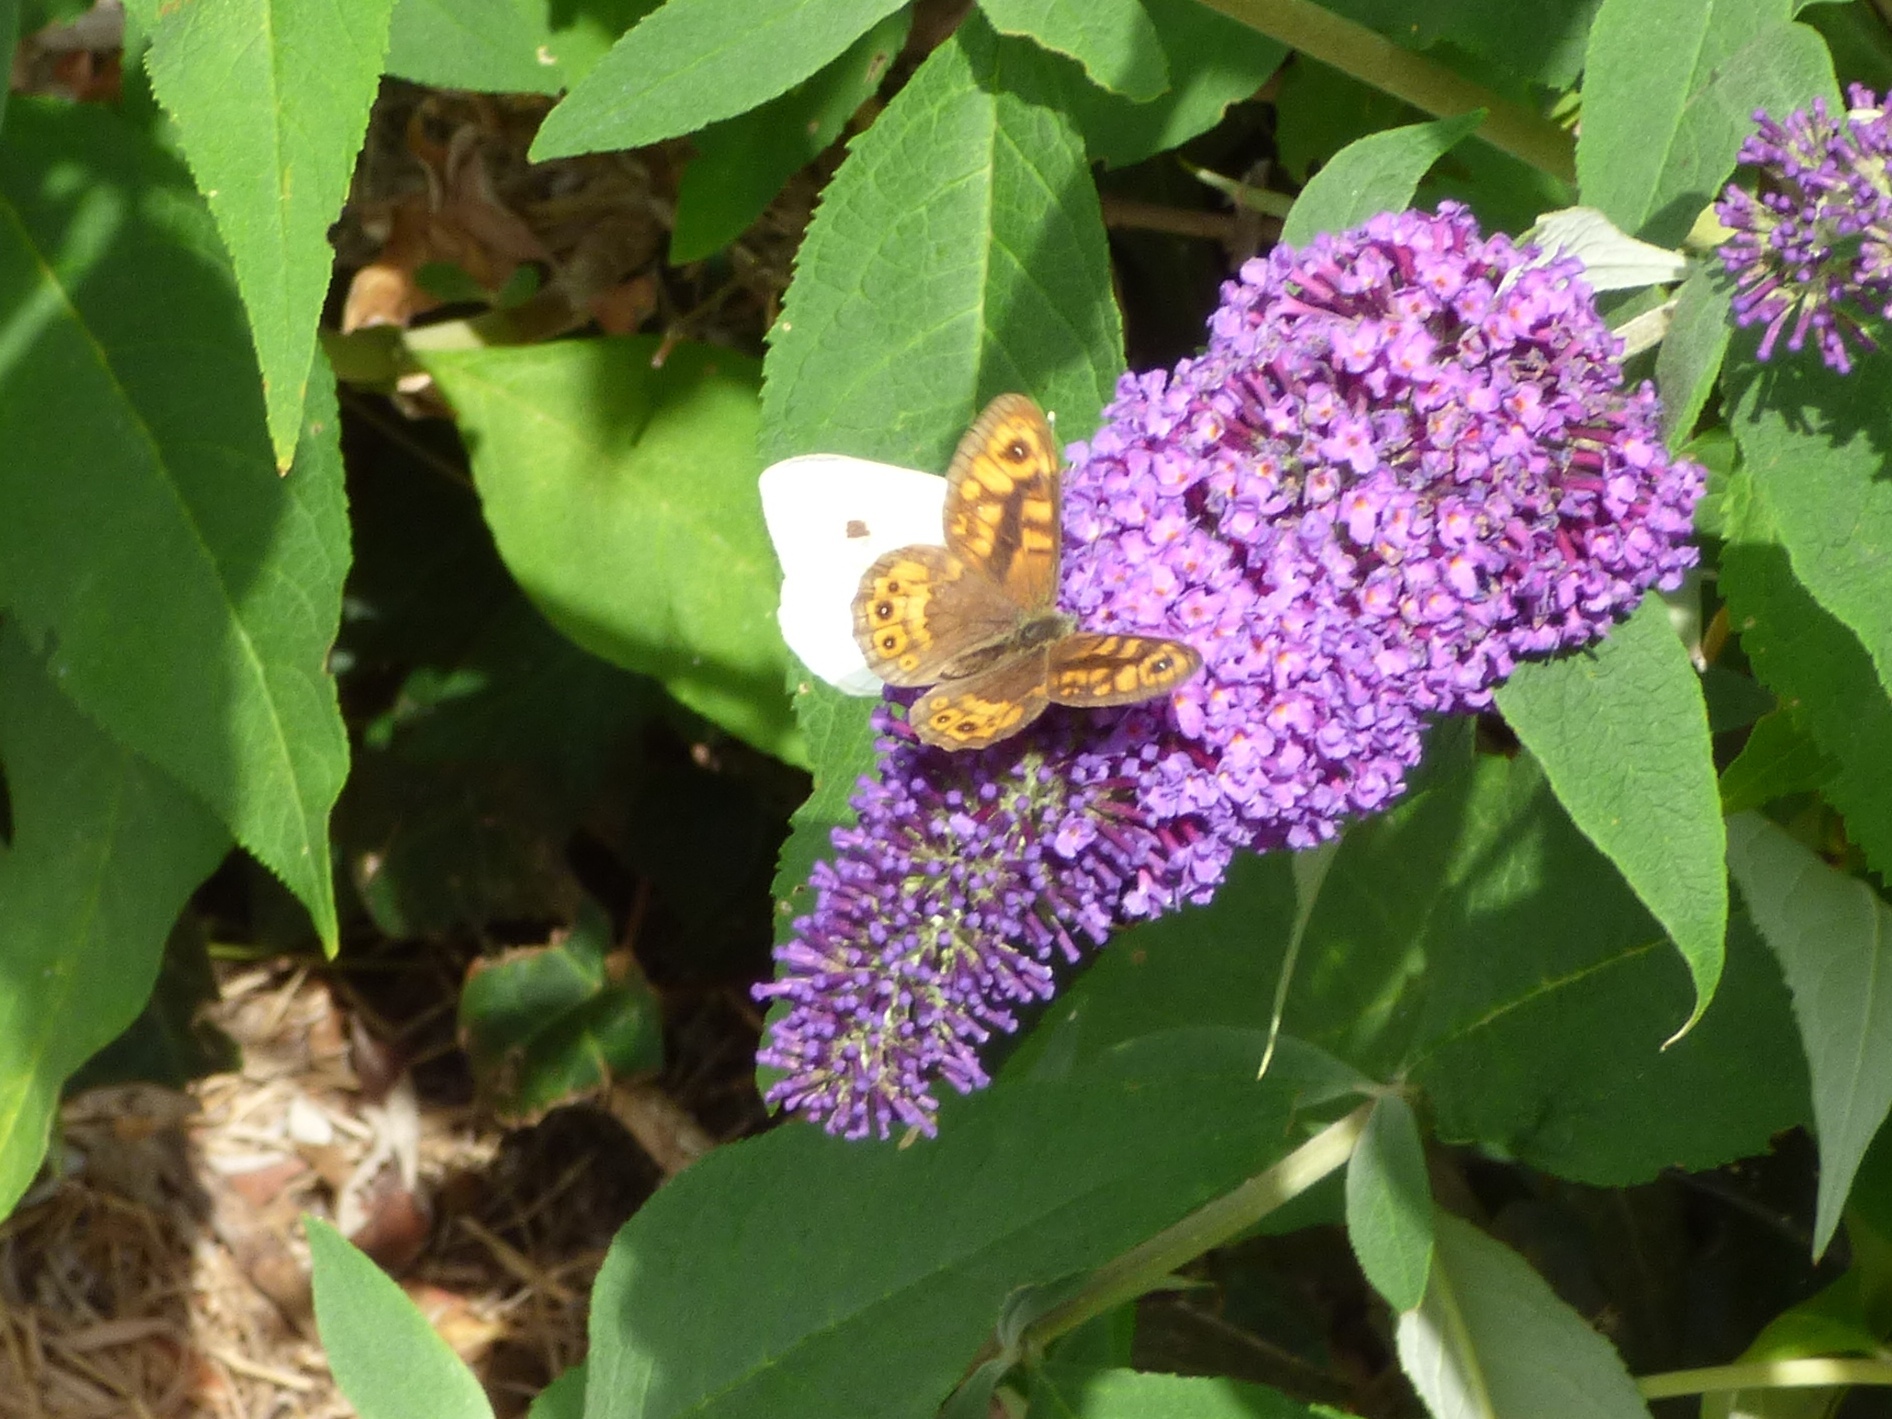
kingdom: Animalia
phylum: Arthropoda
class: Insecta
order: Lepidoptera
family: Nymphalidae
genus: Pararge
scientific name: Pararge Lasiommata megera
